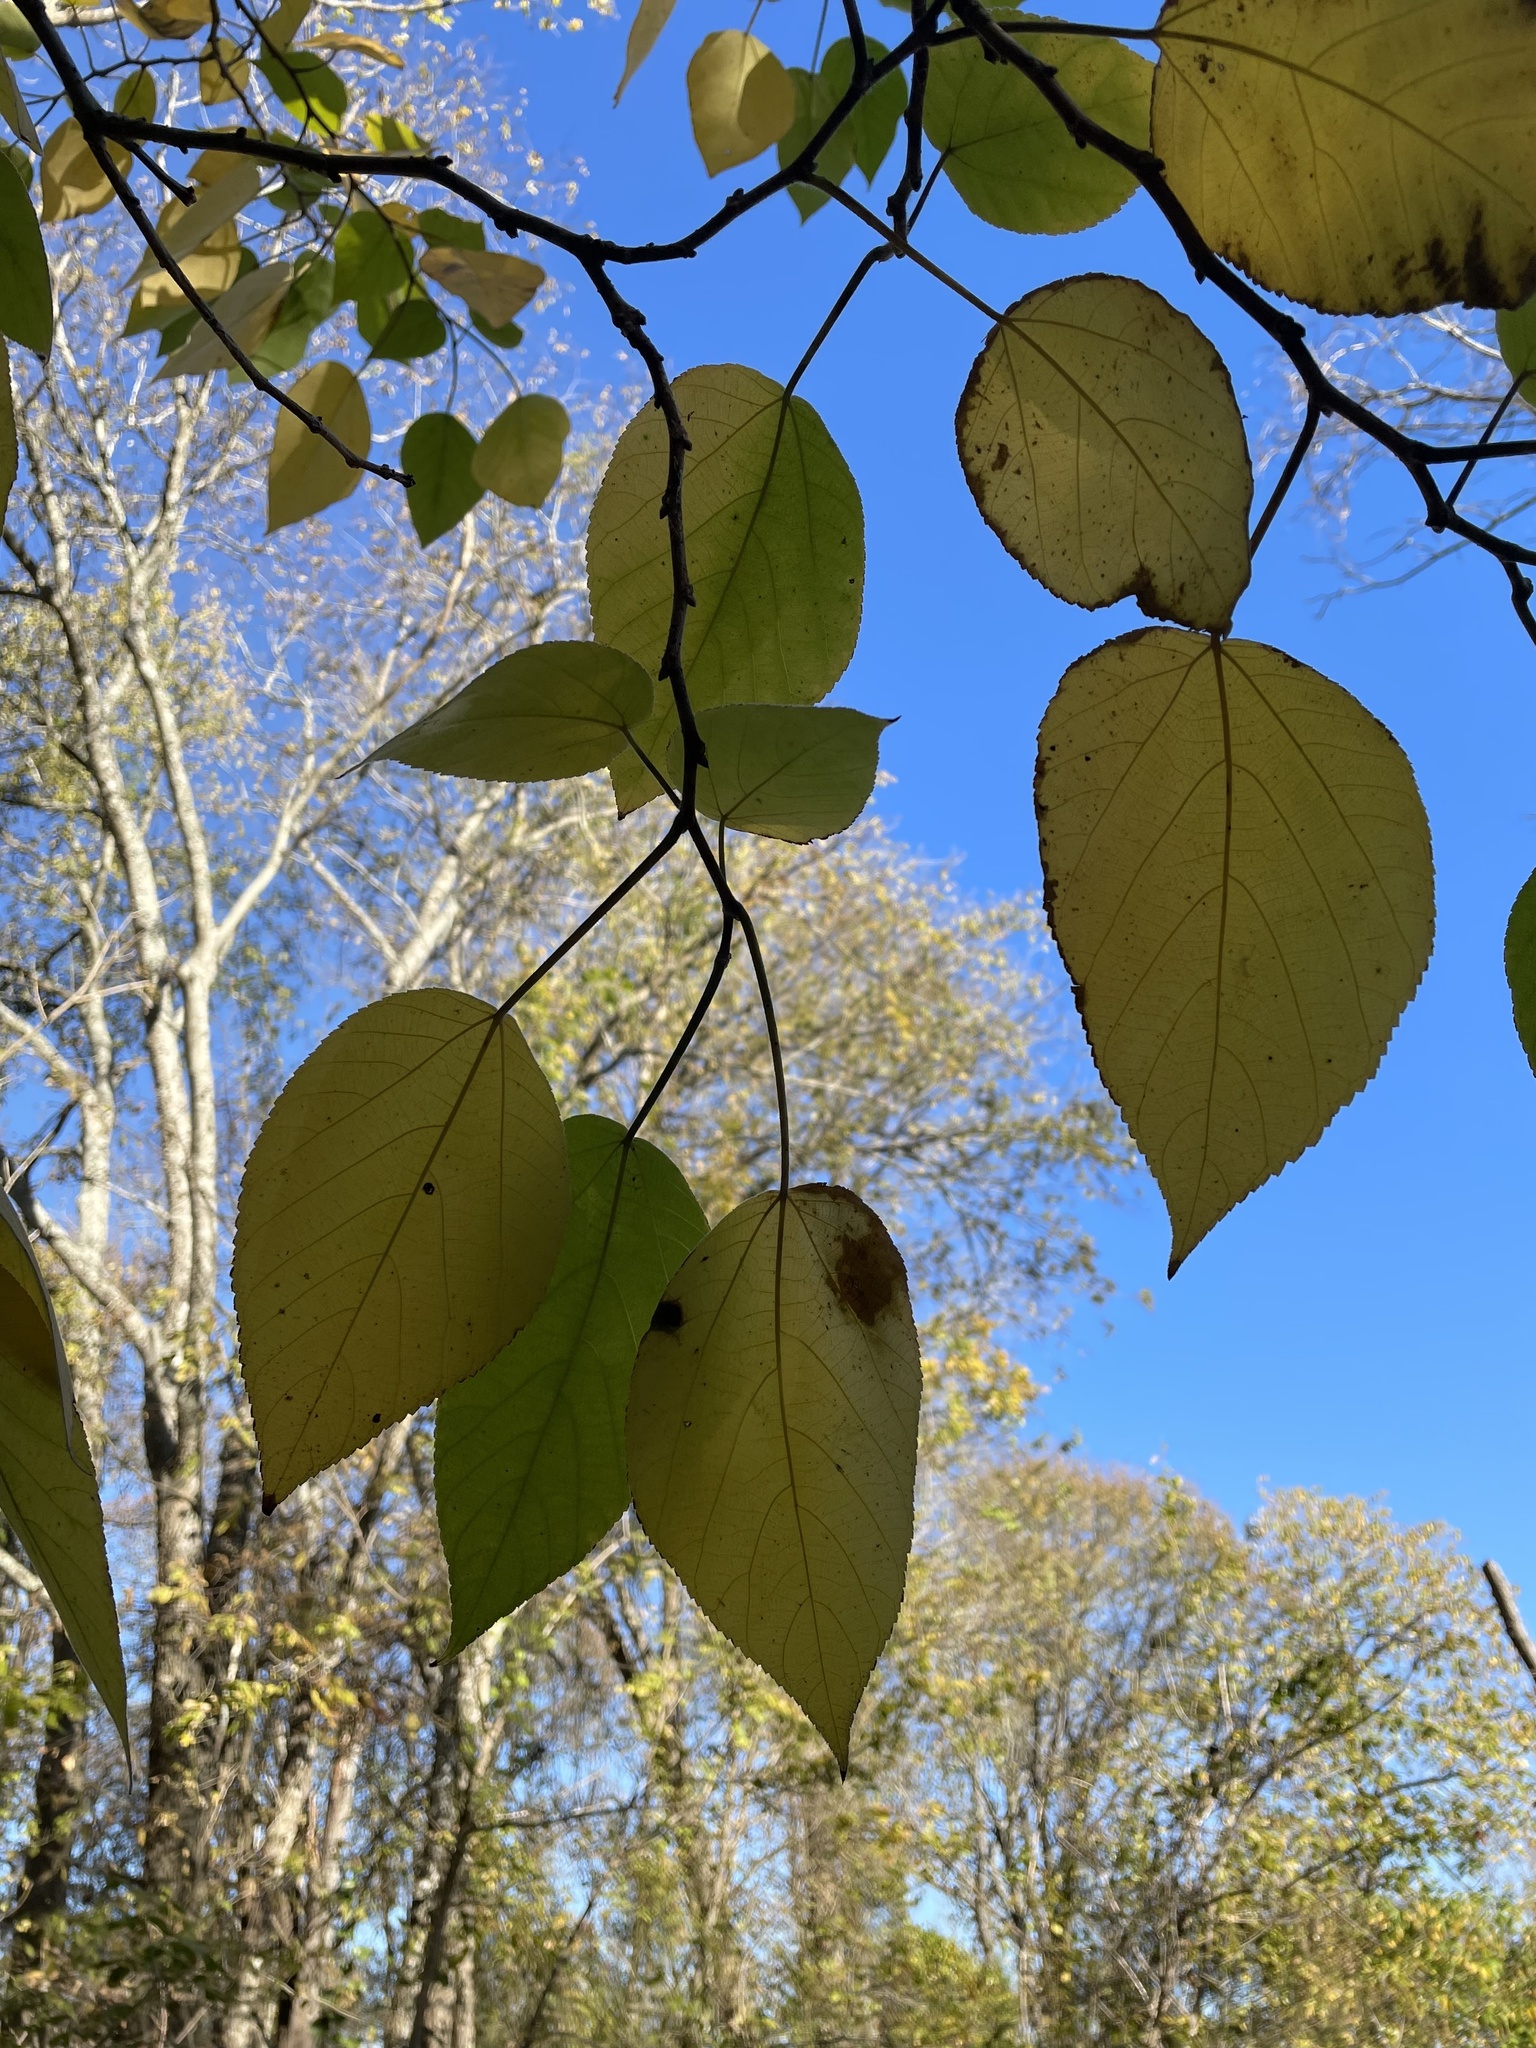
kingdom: Plantae
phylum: Tracheophyta
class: Magnoliopsida
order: Rosales
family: Moraceae
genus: Broussonetia
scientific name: Broussonetia papyrifera
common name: Paper mulberry
